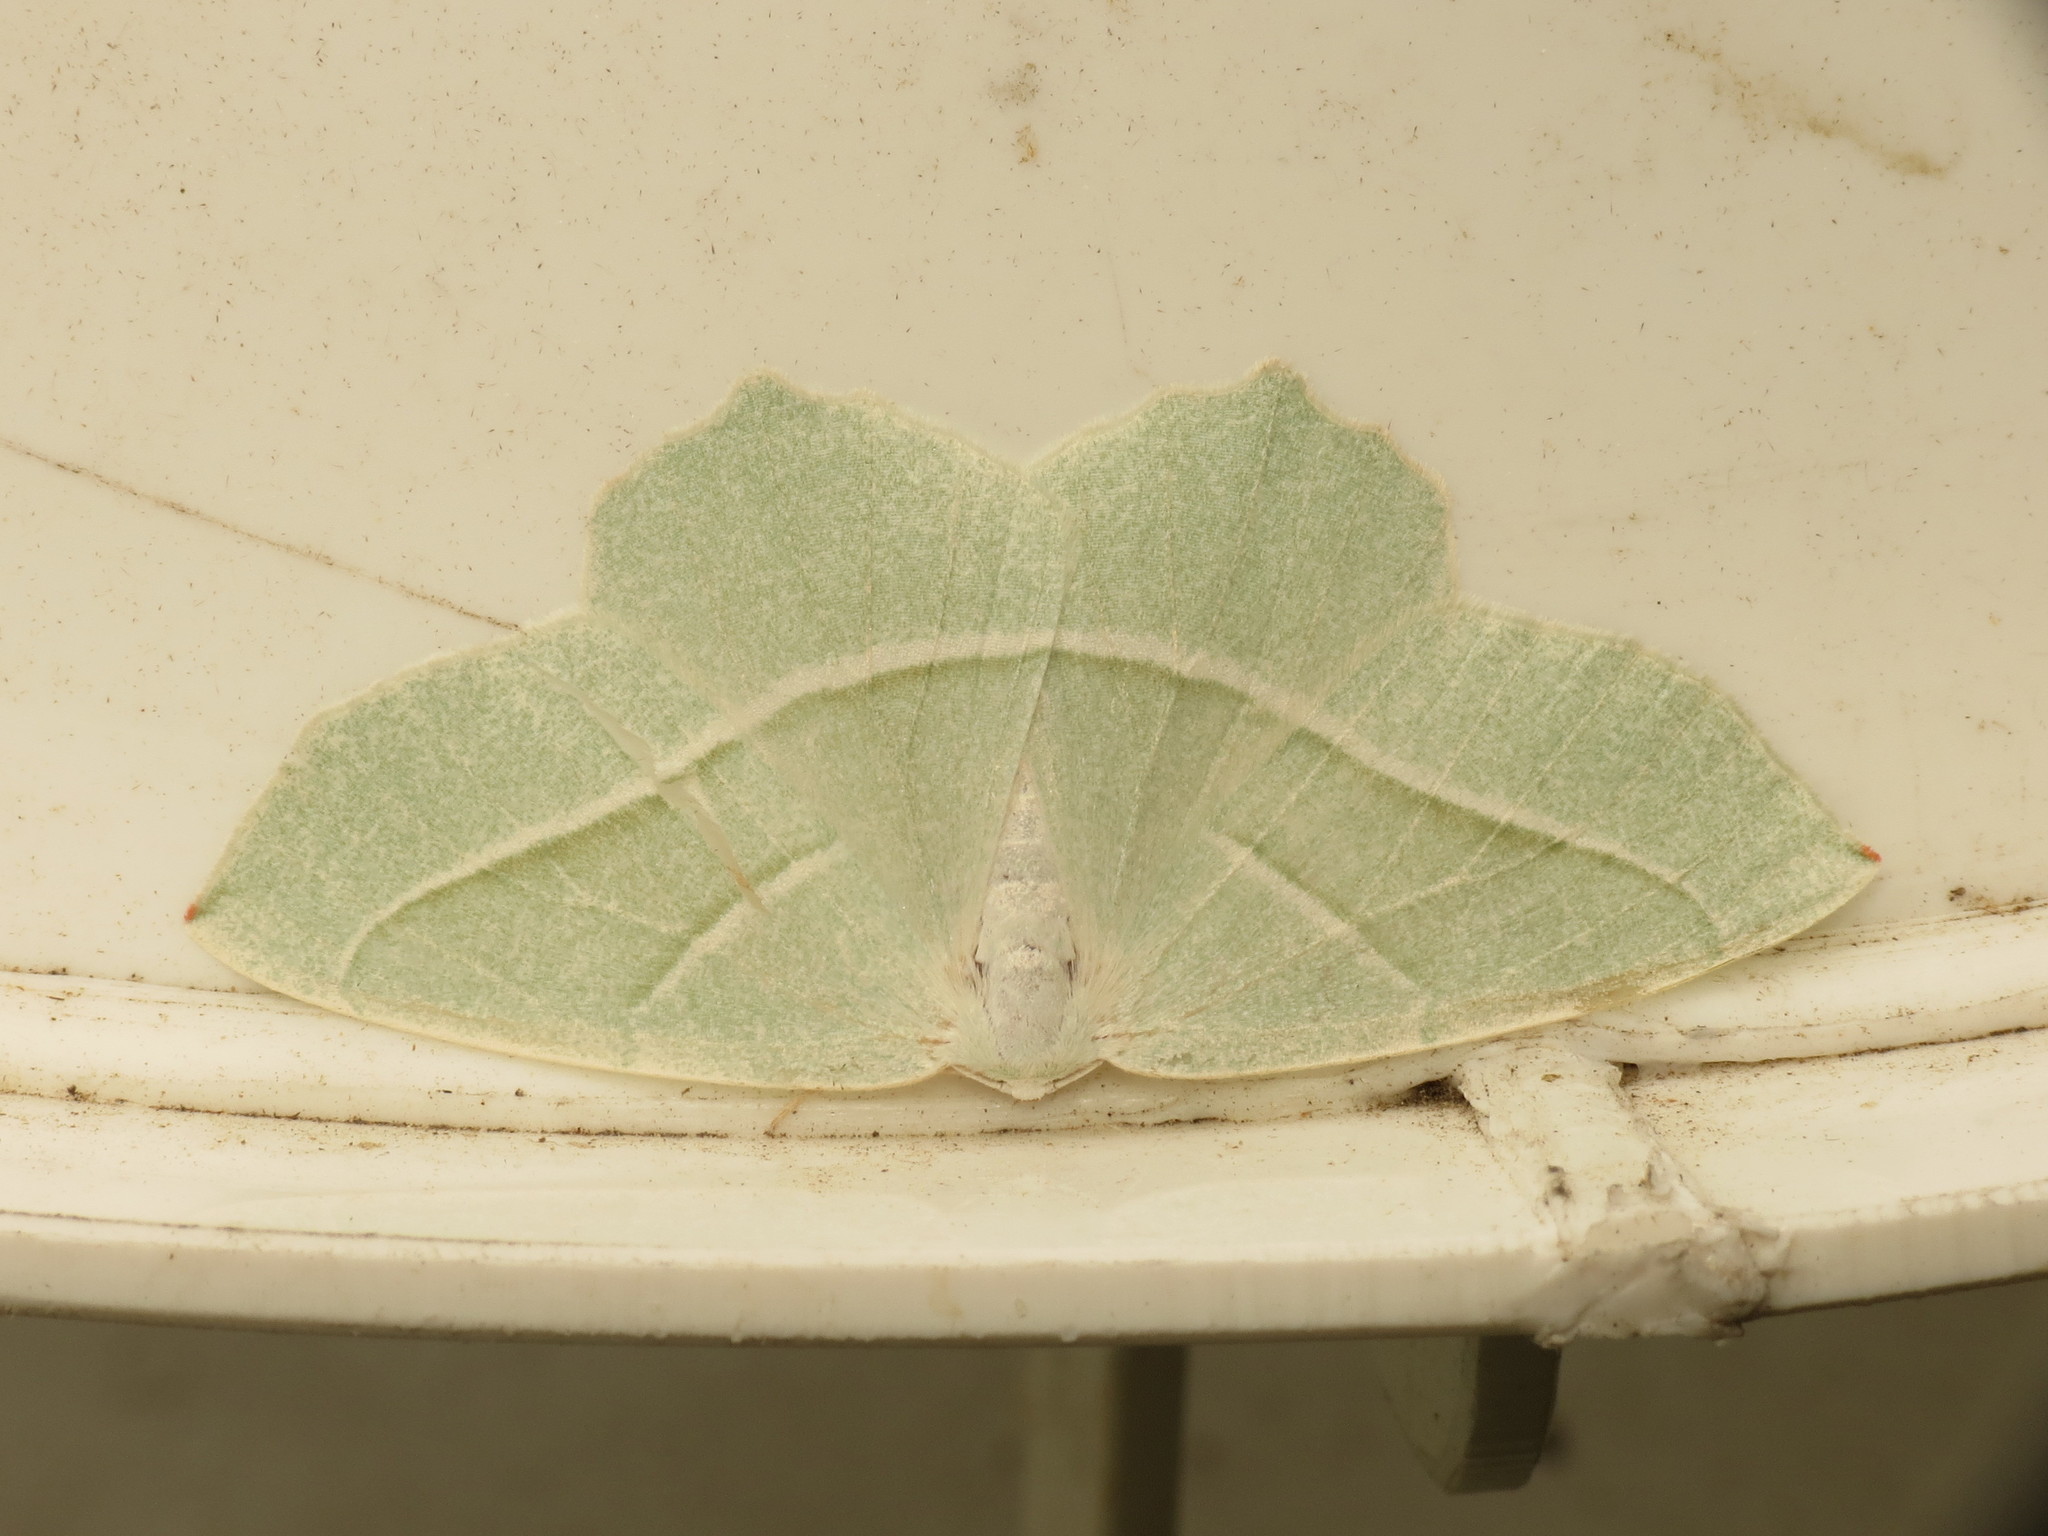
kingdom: Animalia
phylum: Arthropoda
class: Insecta
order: Lepidoptera
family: Geometridae
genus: Campaea
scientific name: Campaea margaritaria
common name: Light emerald
